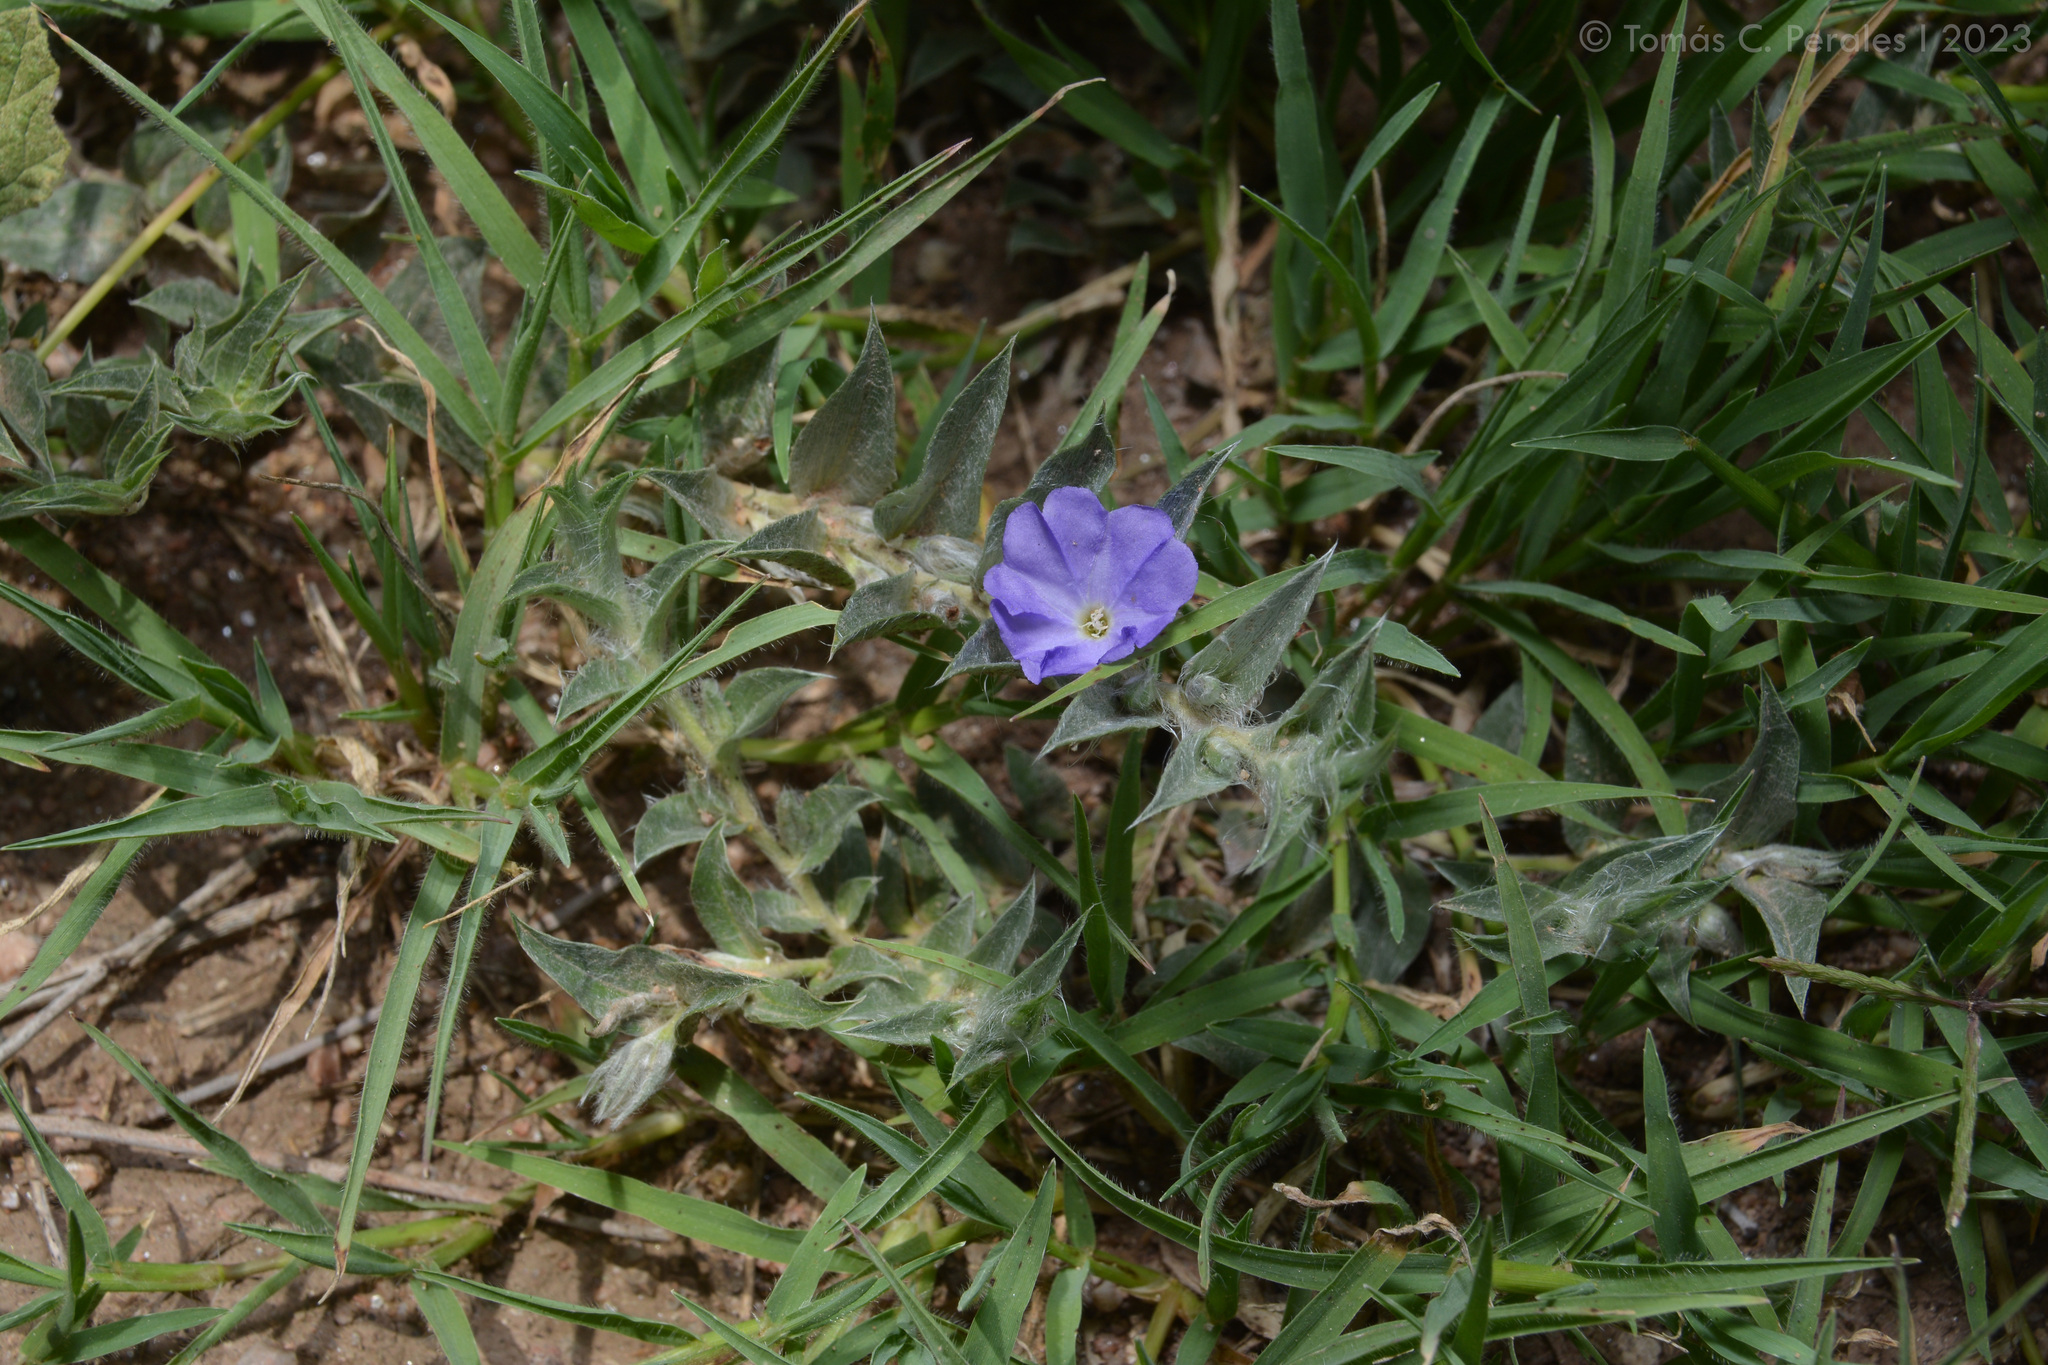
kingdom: Plantae
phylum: Tracheophyta
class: Magnoliopsida
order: Solanales
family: Convolvulaceae
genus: Evolvulus
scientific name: Evolvulus sericeus
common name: Blue dots
